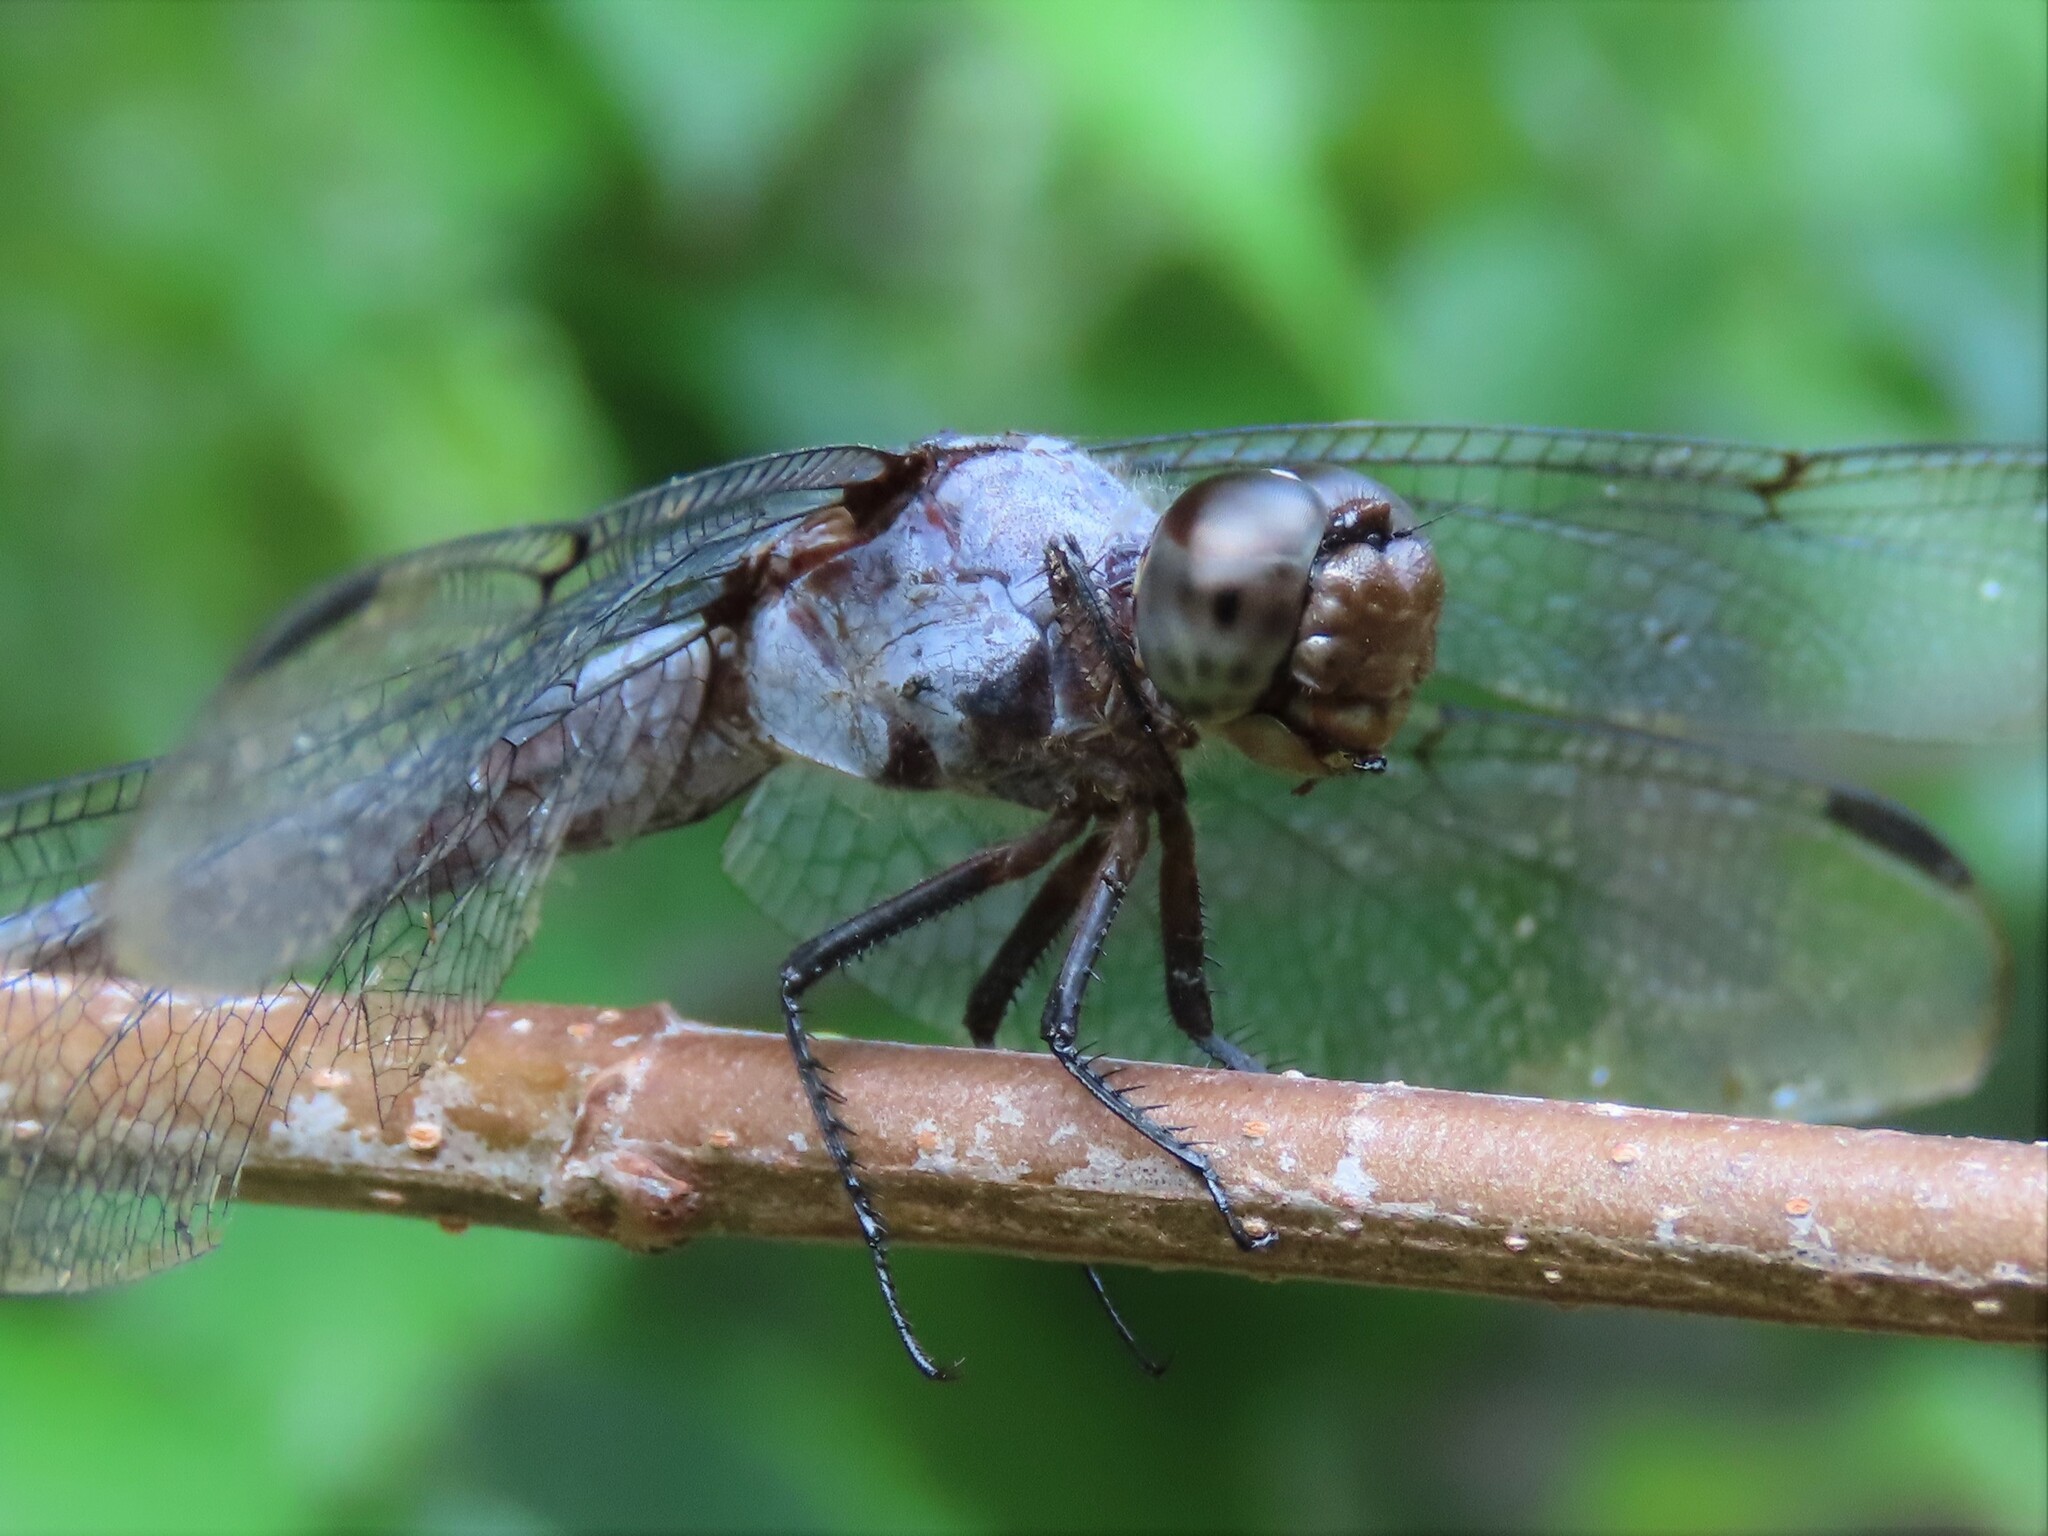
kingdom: Animalia
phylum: Arthropoda
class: Insecta
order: Odonata
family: Libellulidae
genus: Libellula
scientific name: Libellula incesta
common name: Slaty skimmer
